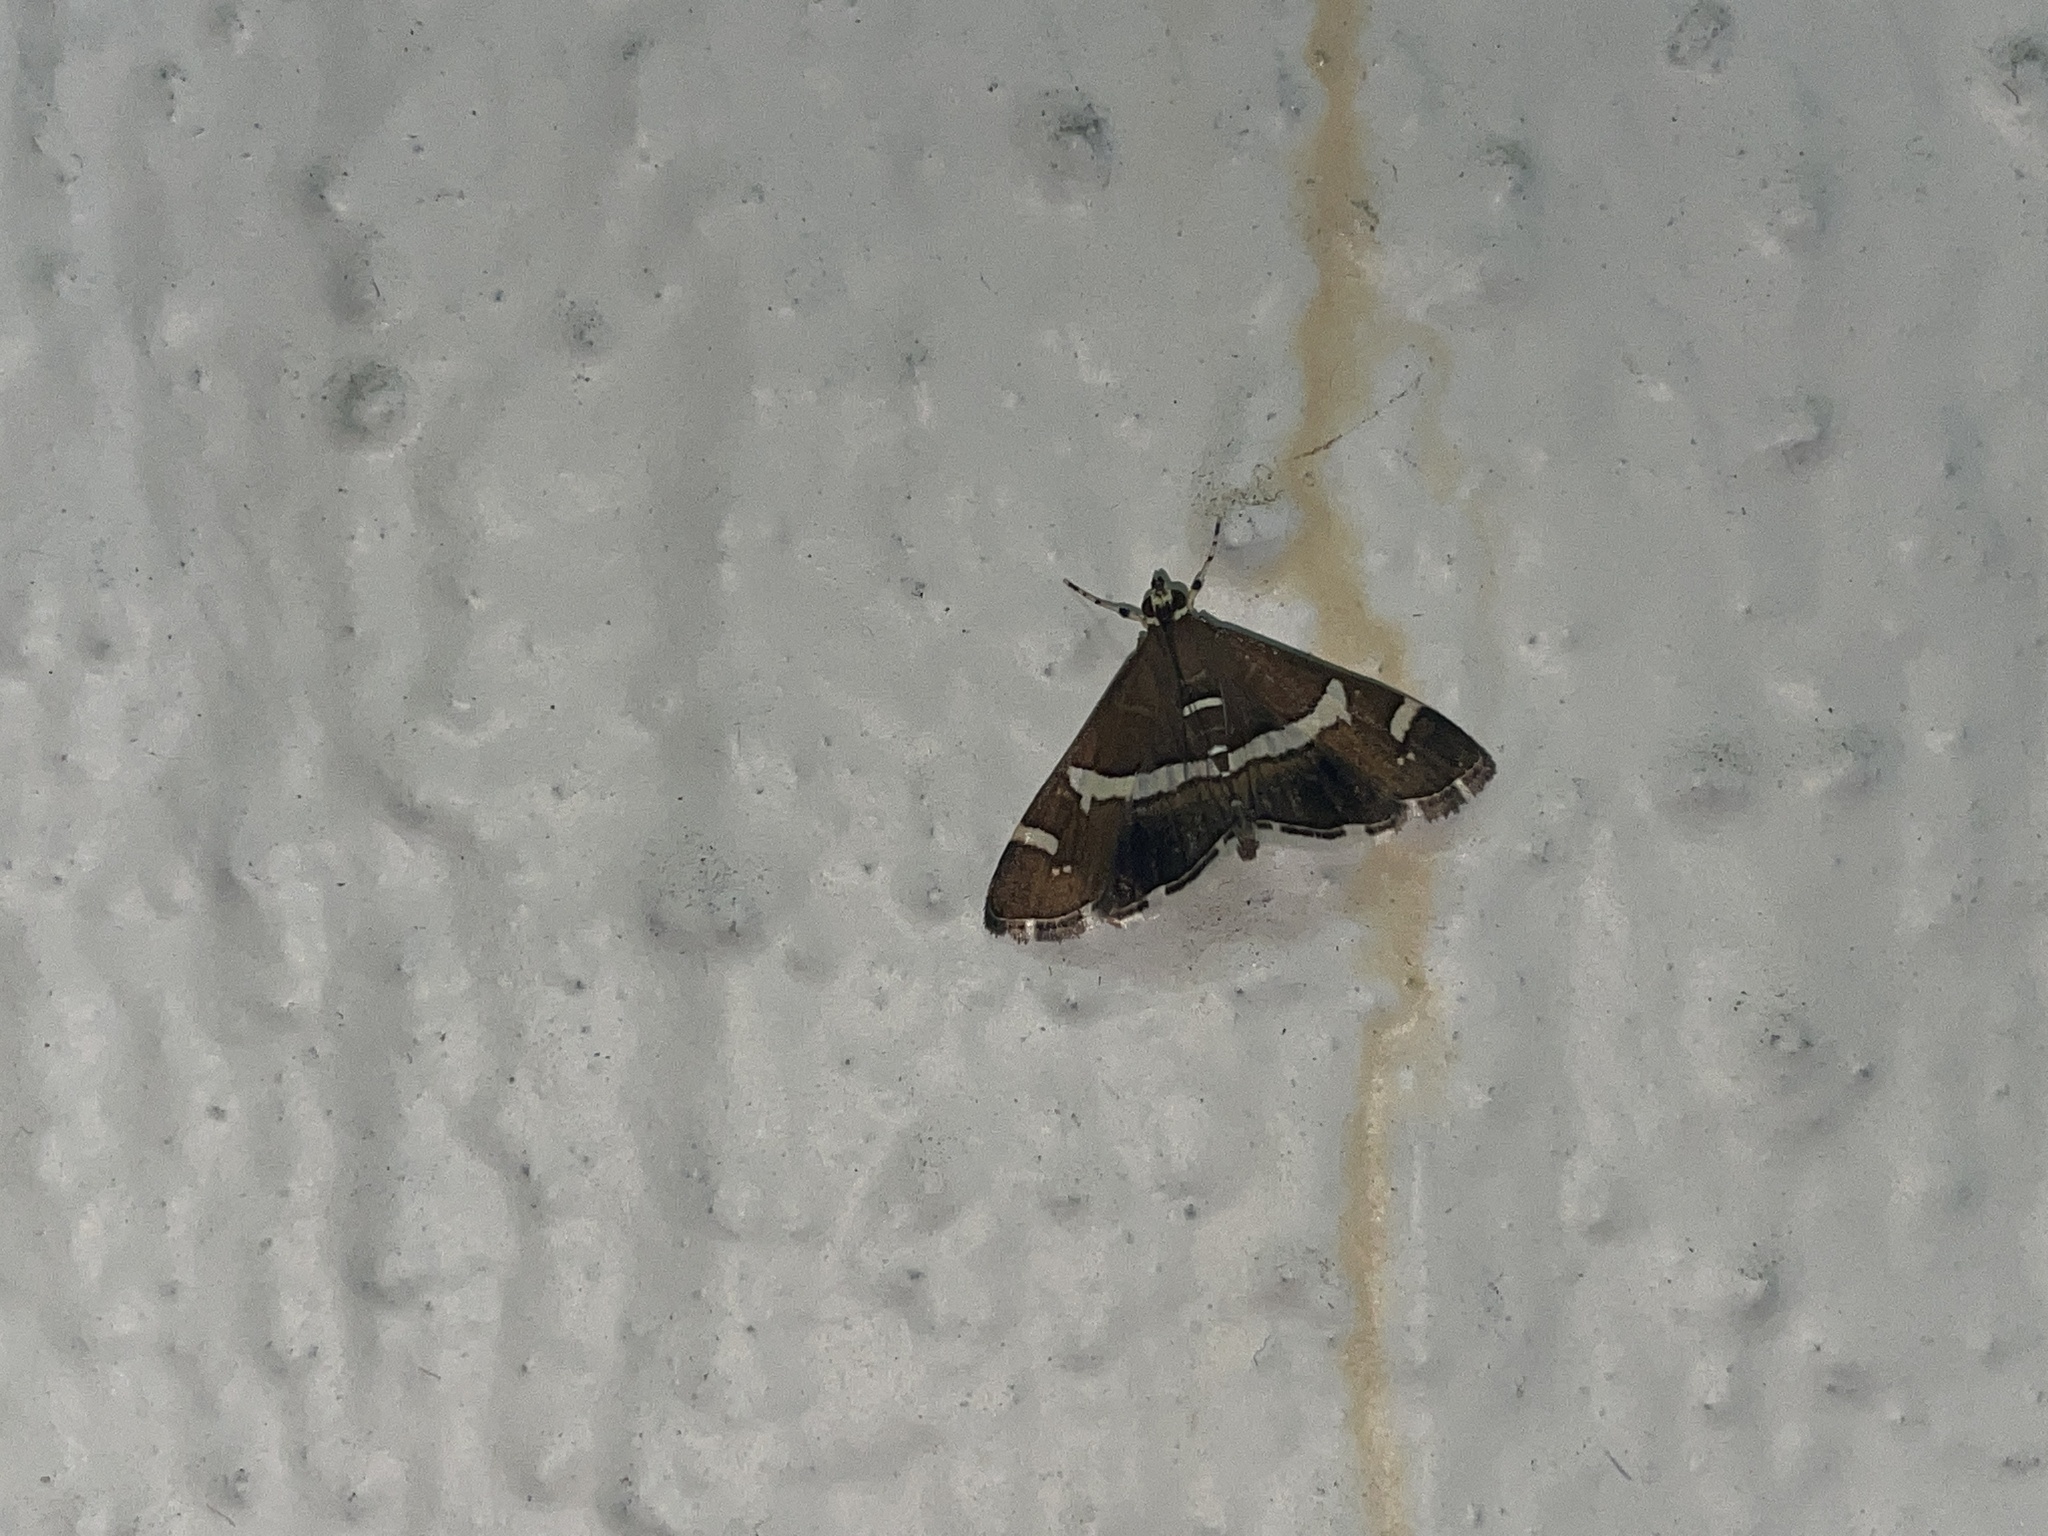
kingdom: Animalia
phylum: Arthropoda
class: Insecta
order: Lepidoptera
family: Crambidae
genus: Spoladea
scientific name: Spoladea recurvalis
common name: Beet webworm moth
